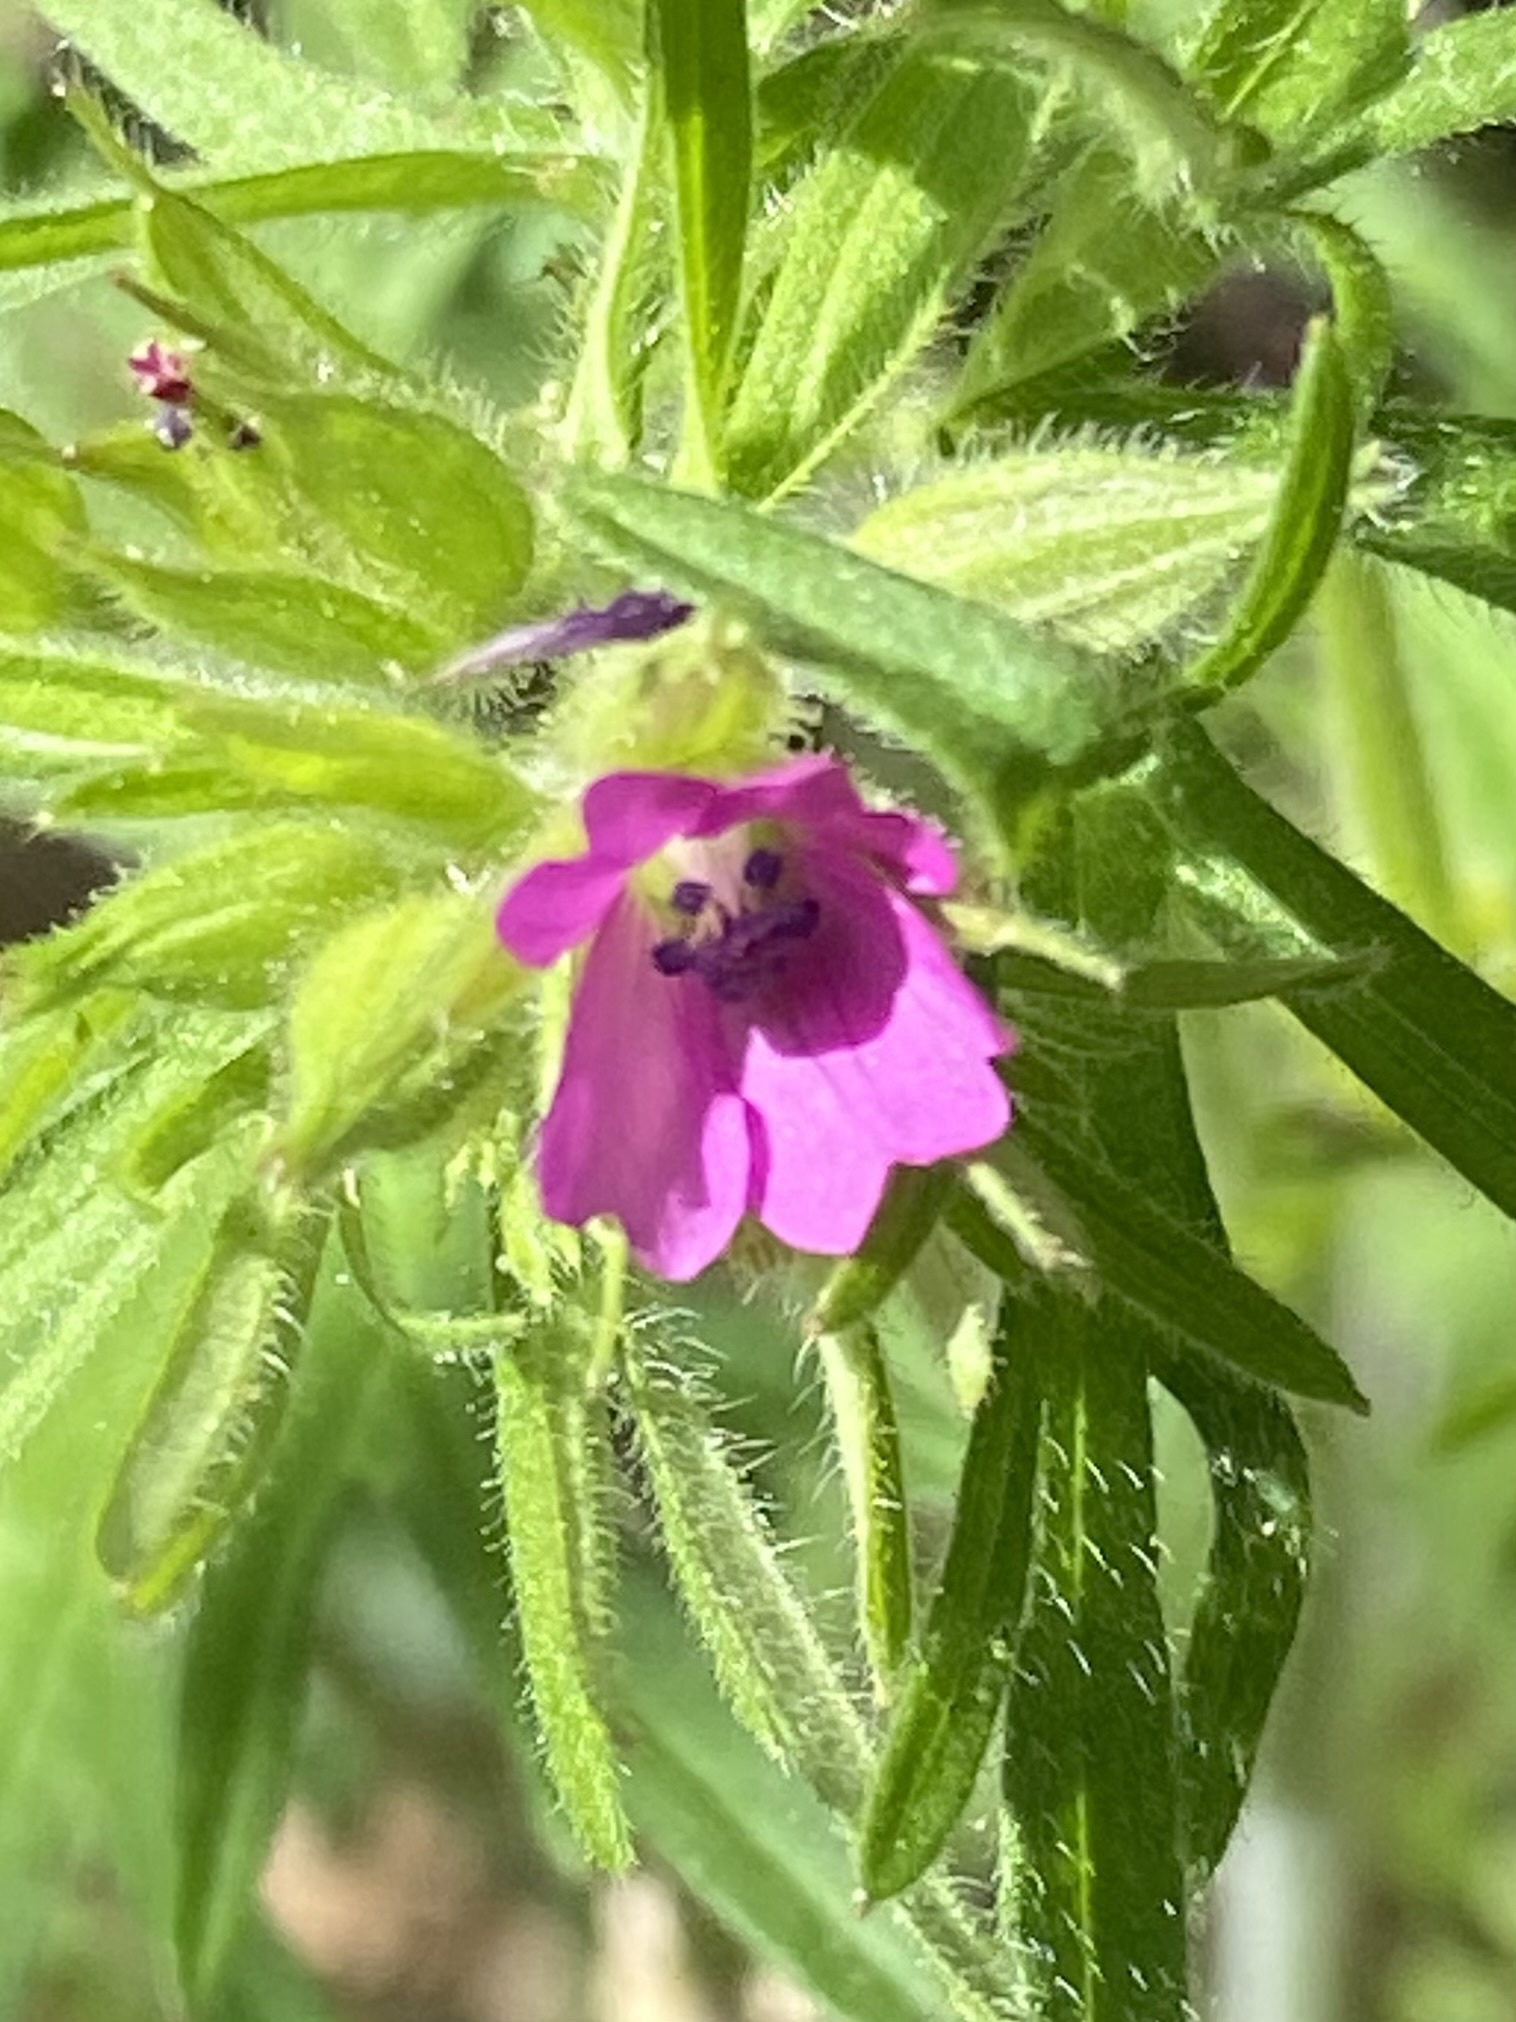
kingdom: Plantae
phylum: Tracheophyta
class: Magnoliopsida
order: Geraniales
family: Geraniaceae
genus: Geranium
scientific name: Geranium dissectum
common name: Cut-leaved crane's-bill
